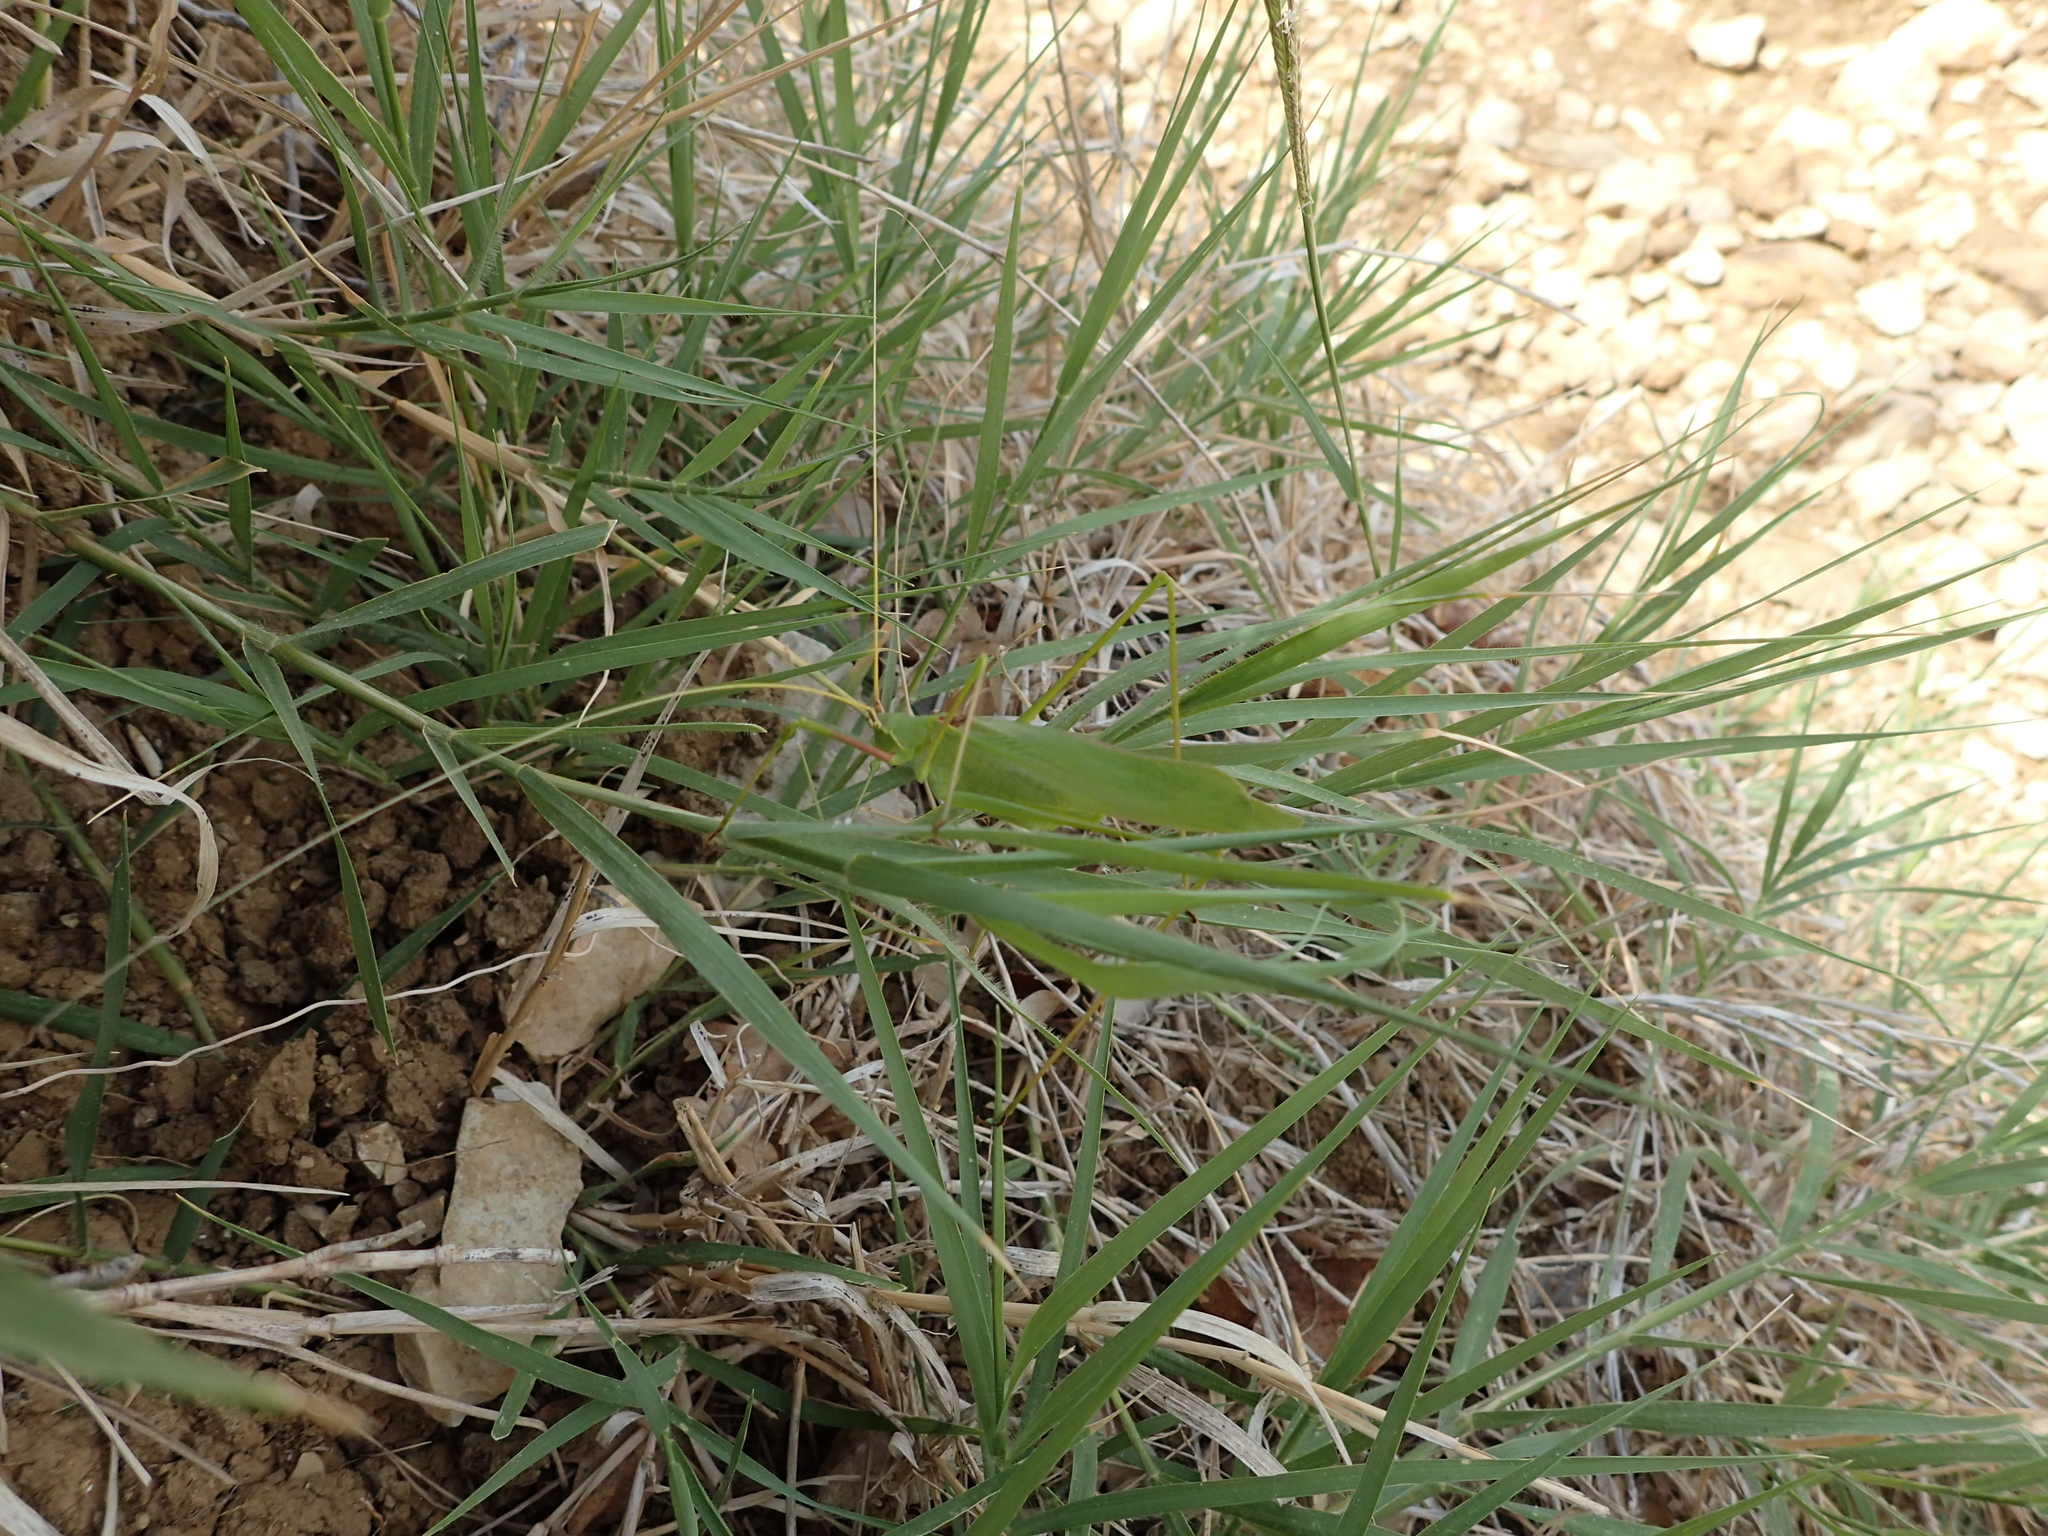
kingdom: Animalia
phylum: Arthropoda
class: Insecta
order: Orthoptera
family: Tettigoniidae
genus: Acrometopa
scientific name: Acrometopa macropoda
